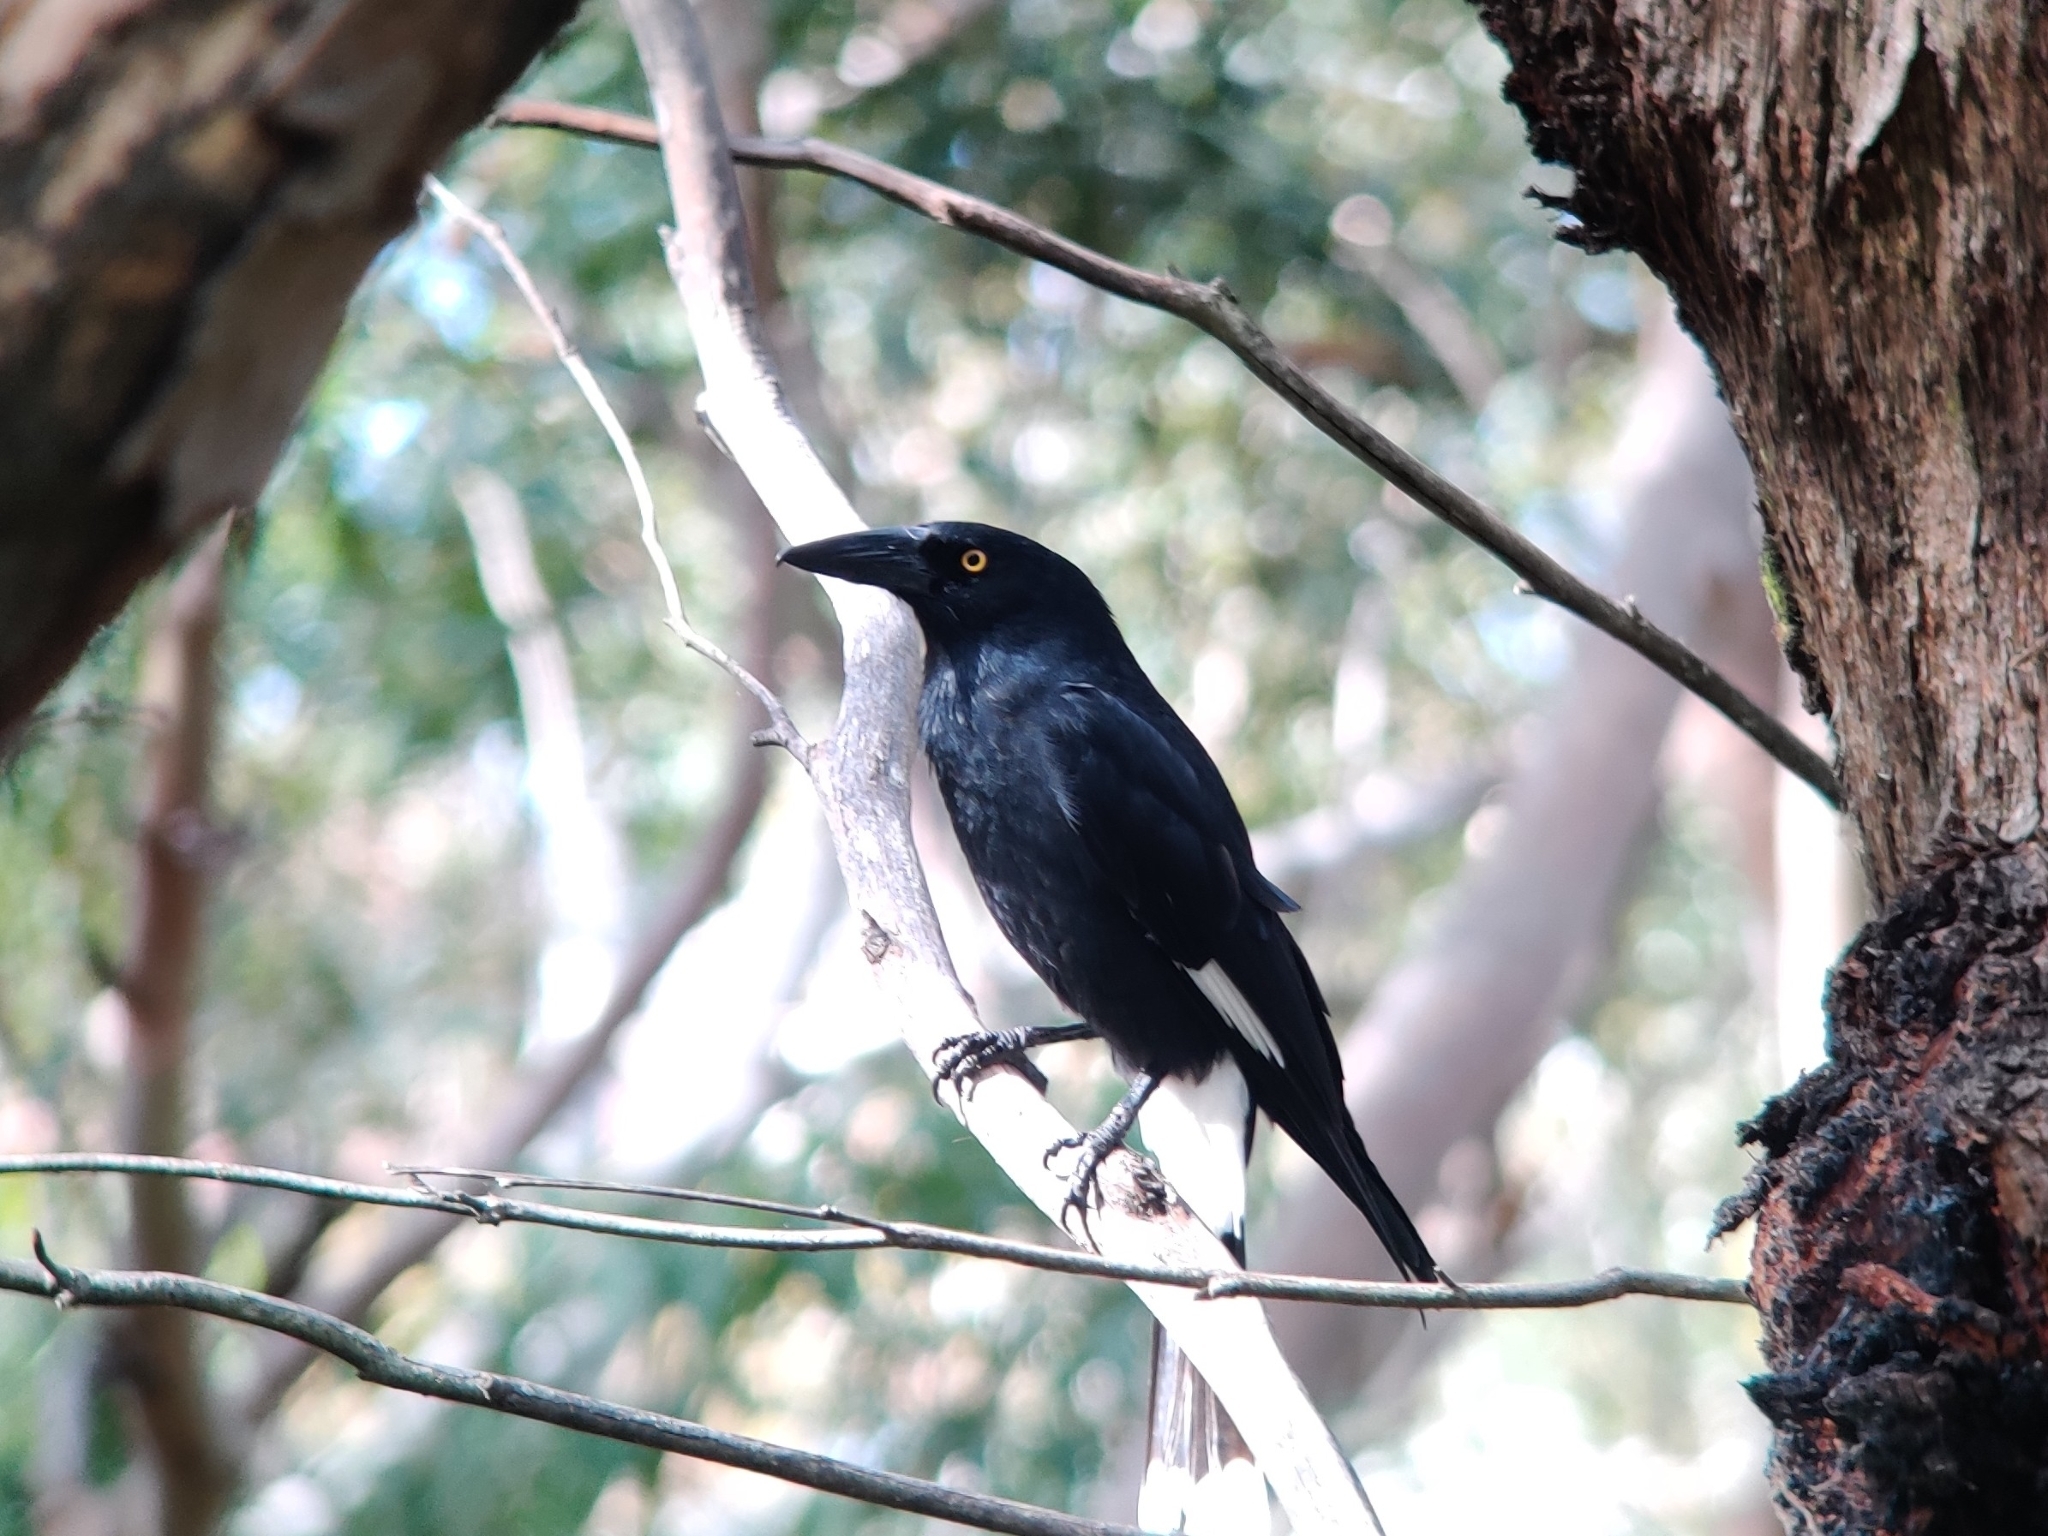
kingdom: Animalia
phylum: Chordata
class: Aves
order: Passeriformes
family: Cracticidae
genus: Strepera
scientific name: Strepera graculina
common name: Pied currawong
